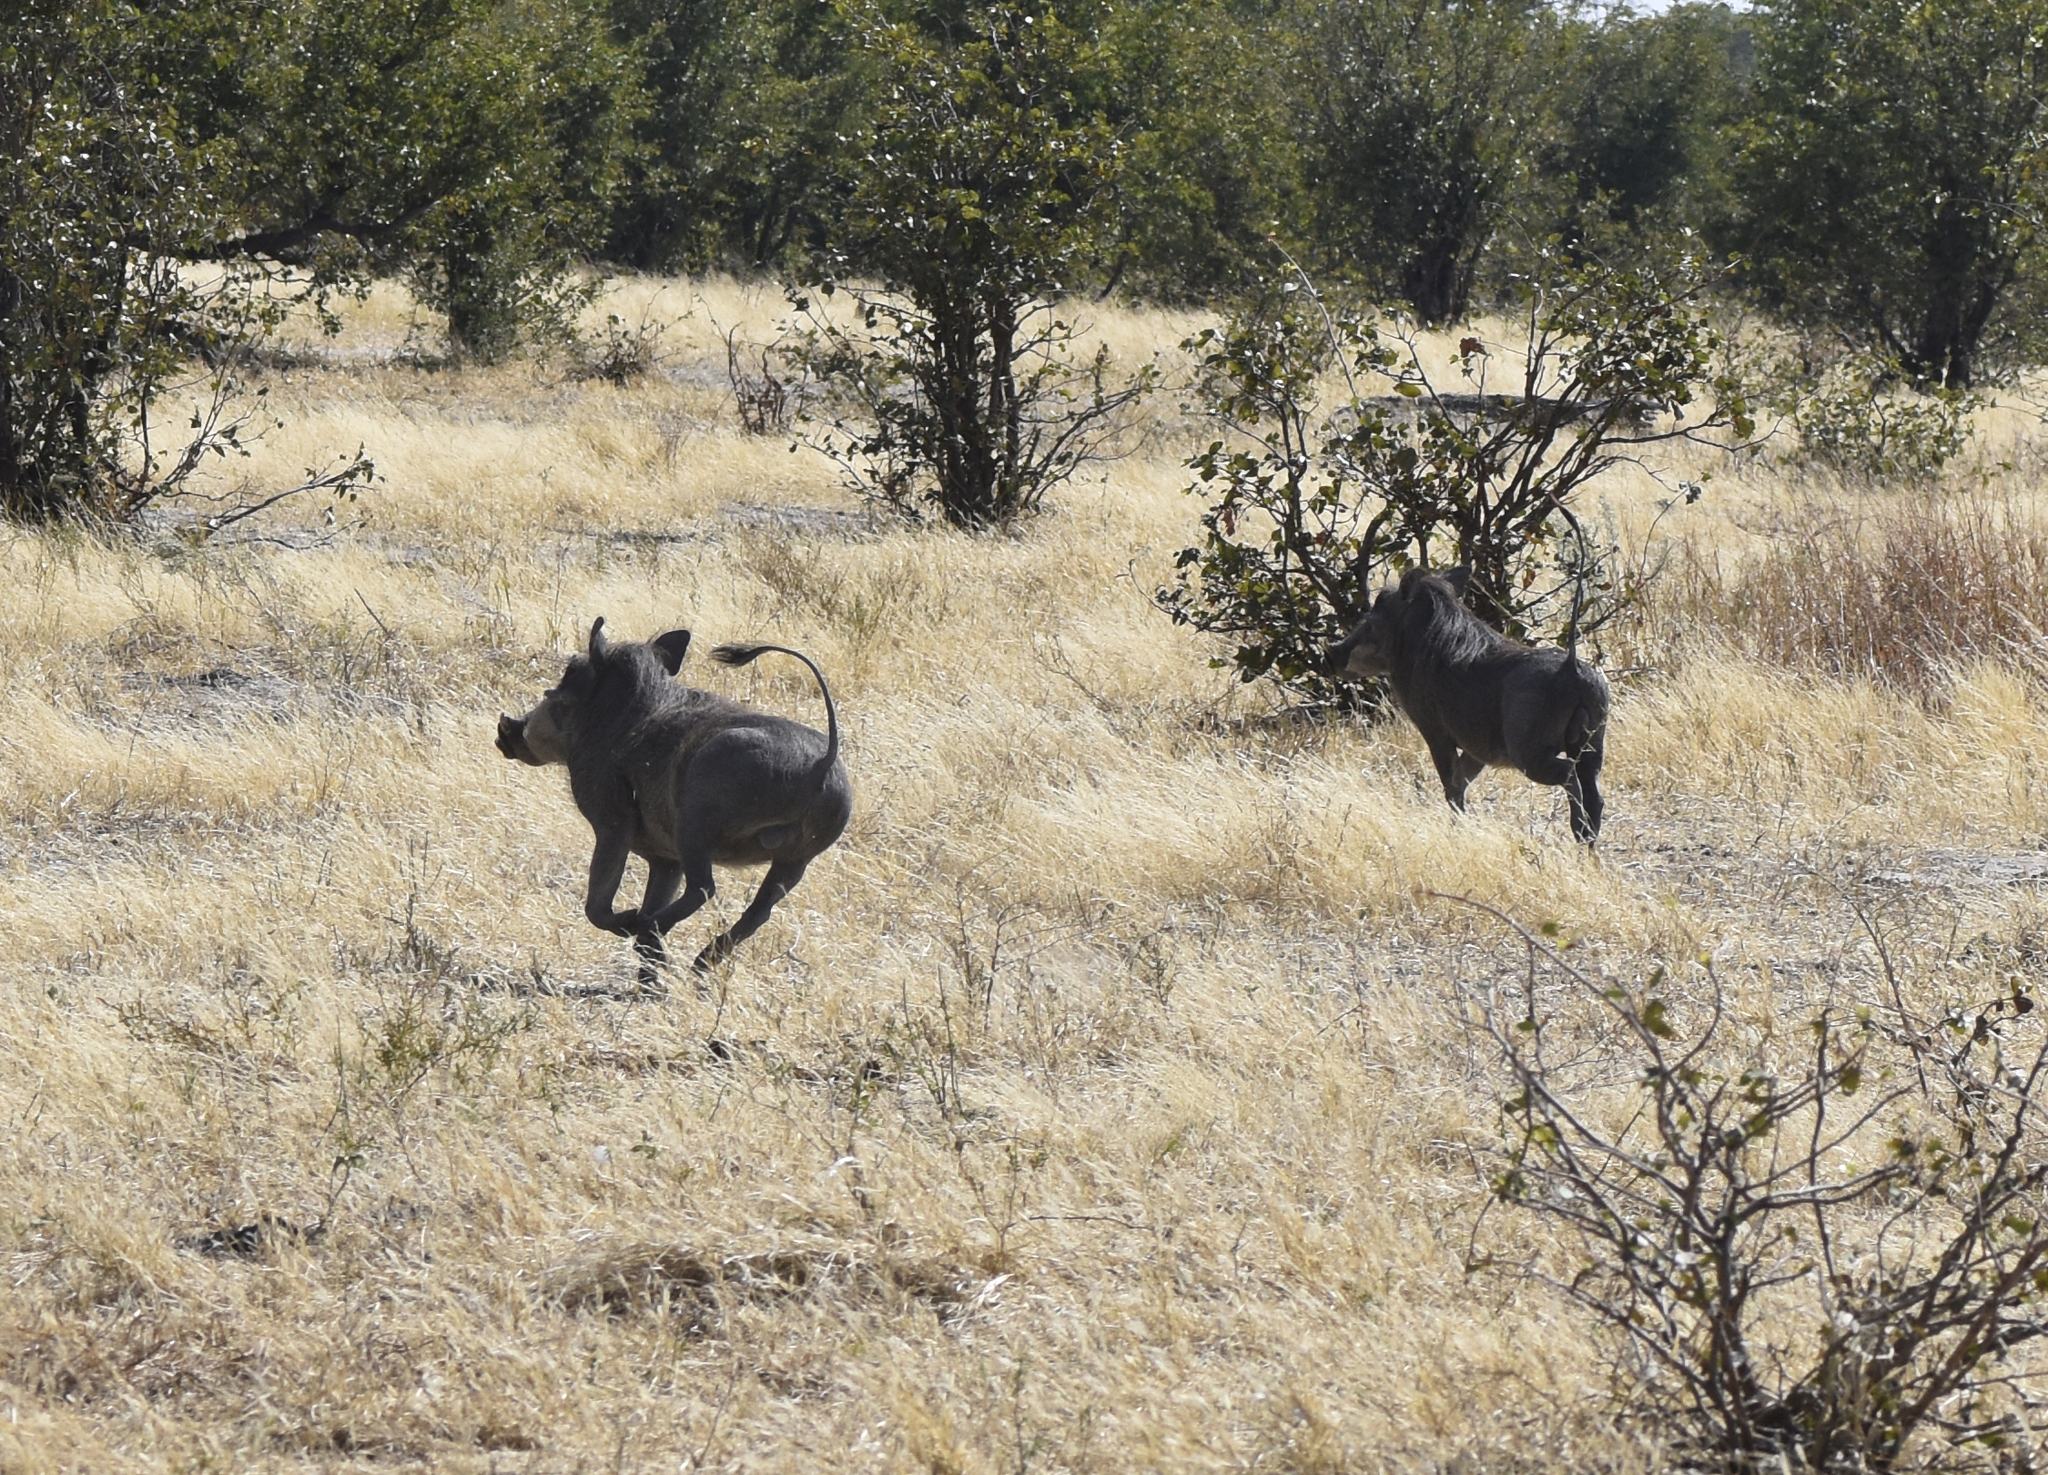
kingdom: Animalia
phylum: Chordata
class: Mammalia
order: Artiodactyla
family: Suidae
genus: Phacochoerus
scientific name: Phacochoerus africanus
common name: Common warthog
